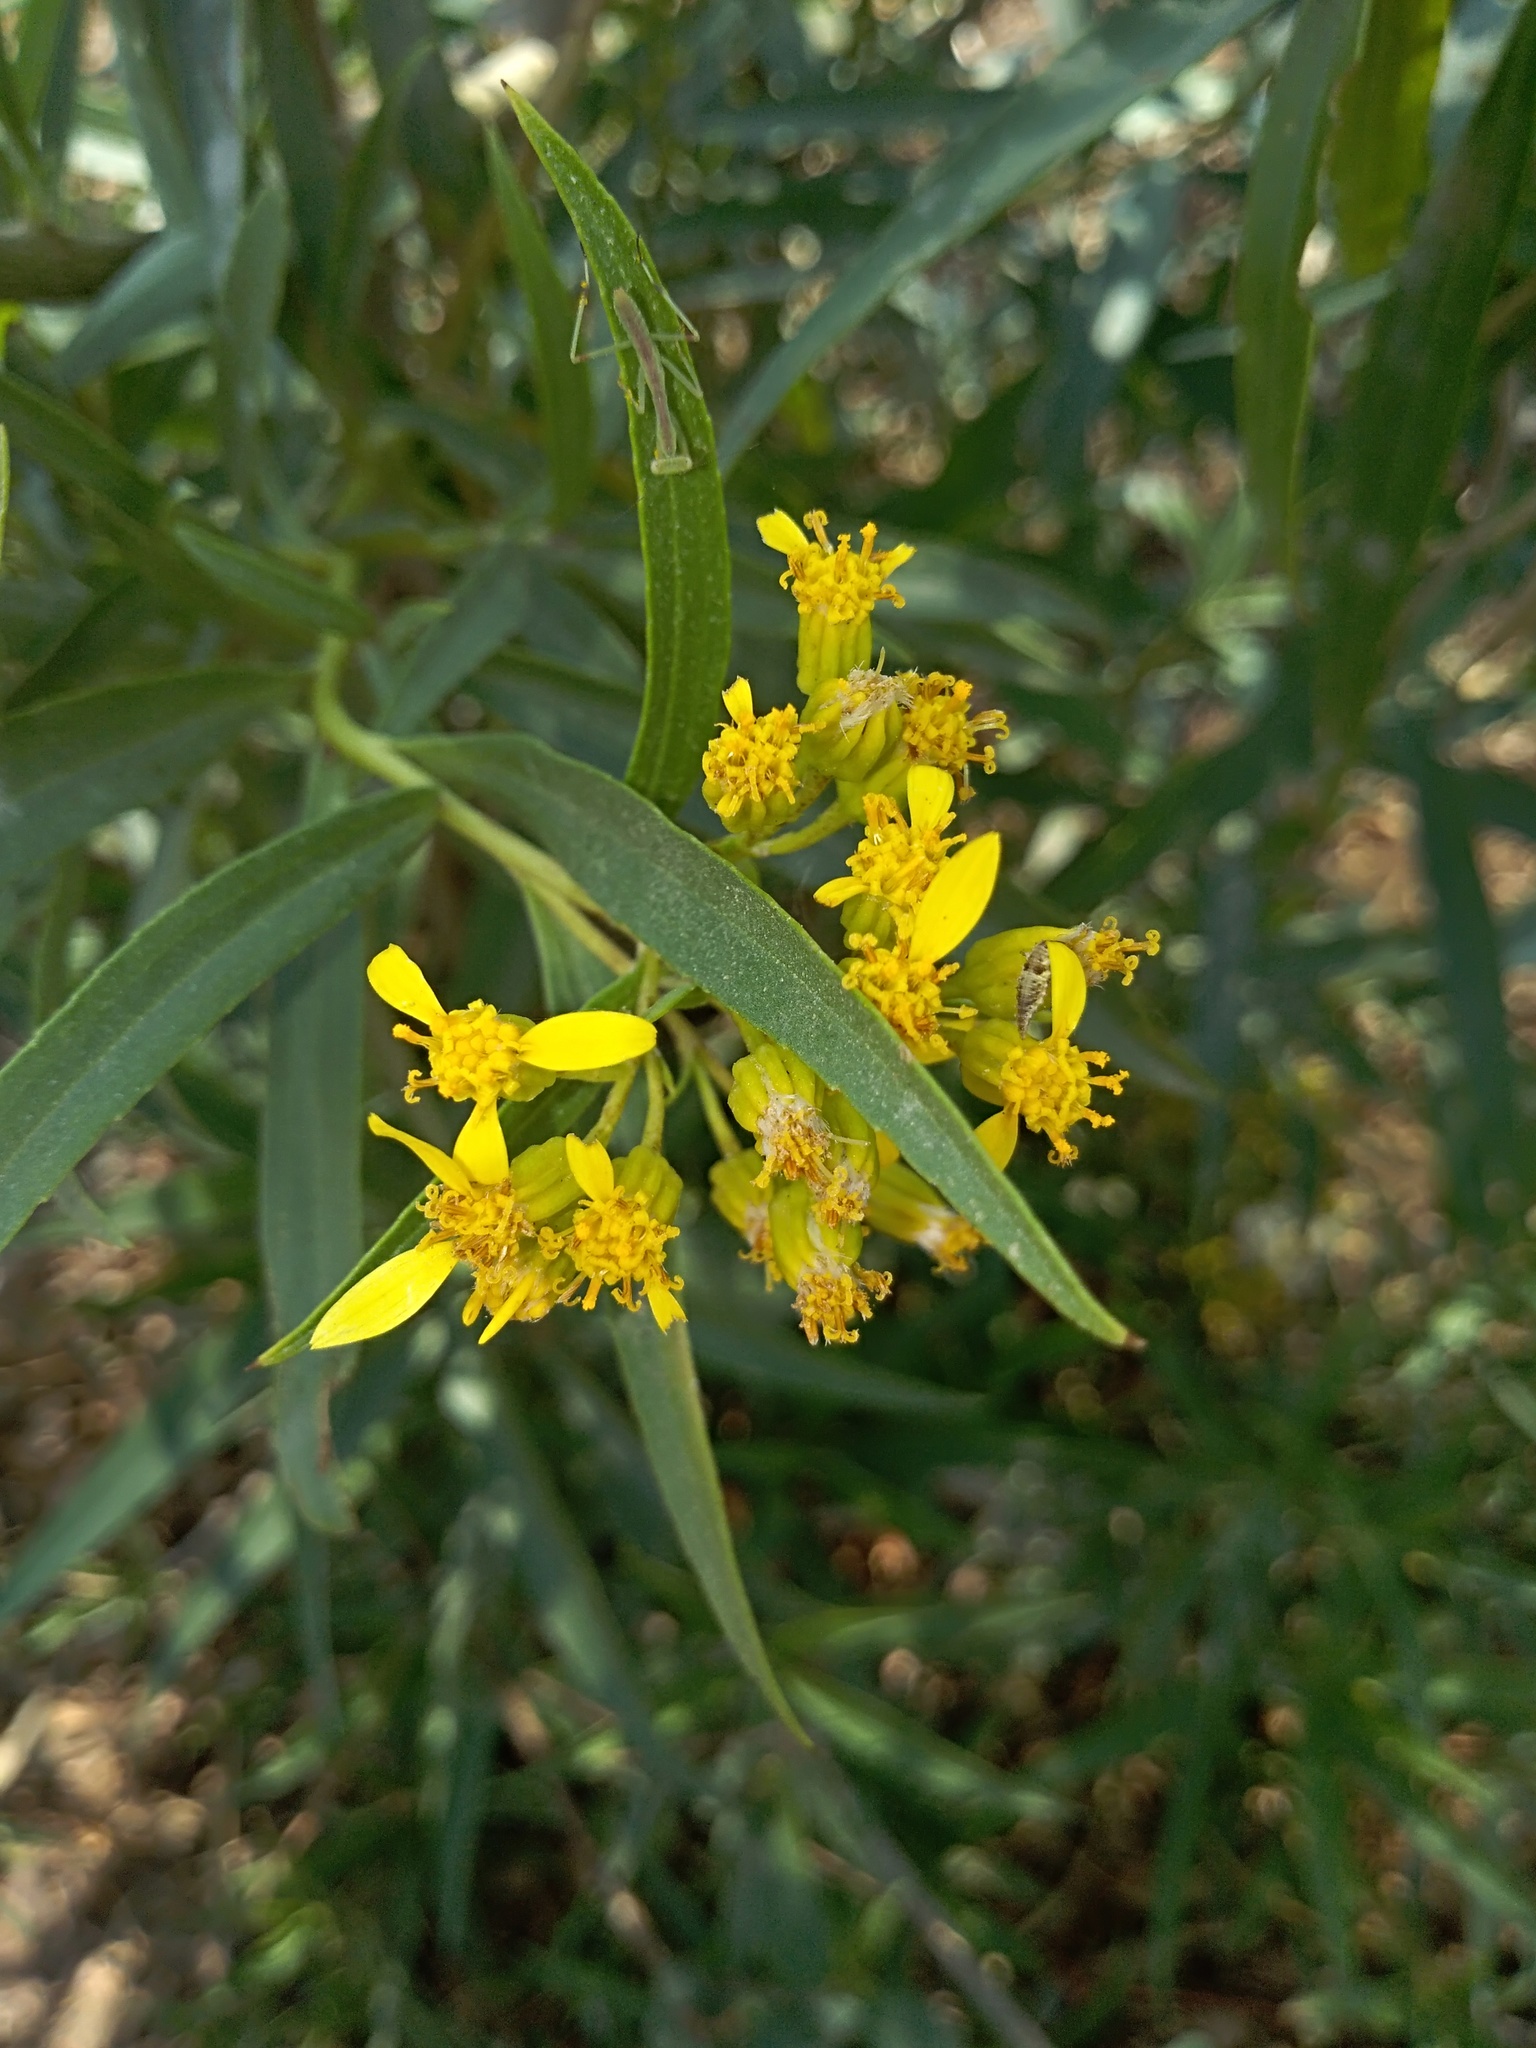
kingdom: Plantae
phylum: Tracheophyta
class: Magnoliopsida
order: Asterales
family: Asteraceae
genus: Barkleyanthus
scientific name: Barkleyanthus salicifolius
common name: Willow ragwort
